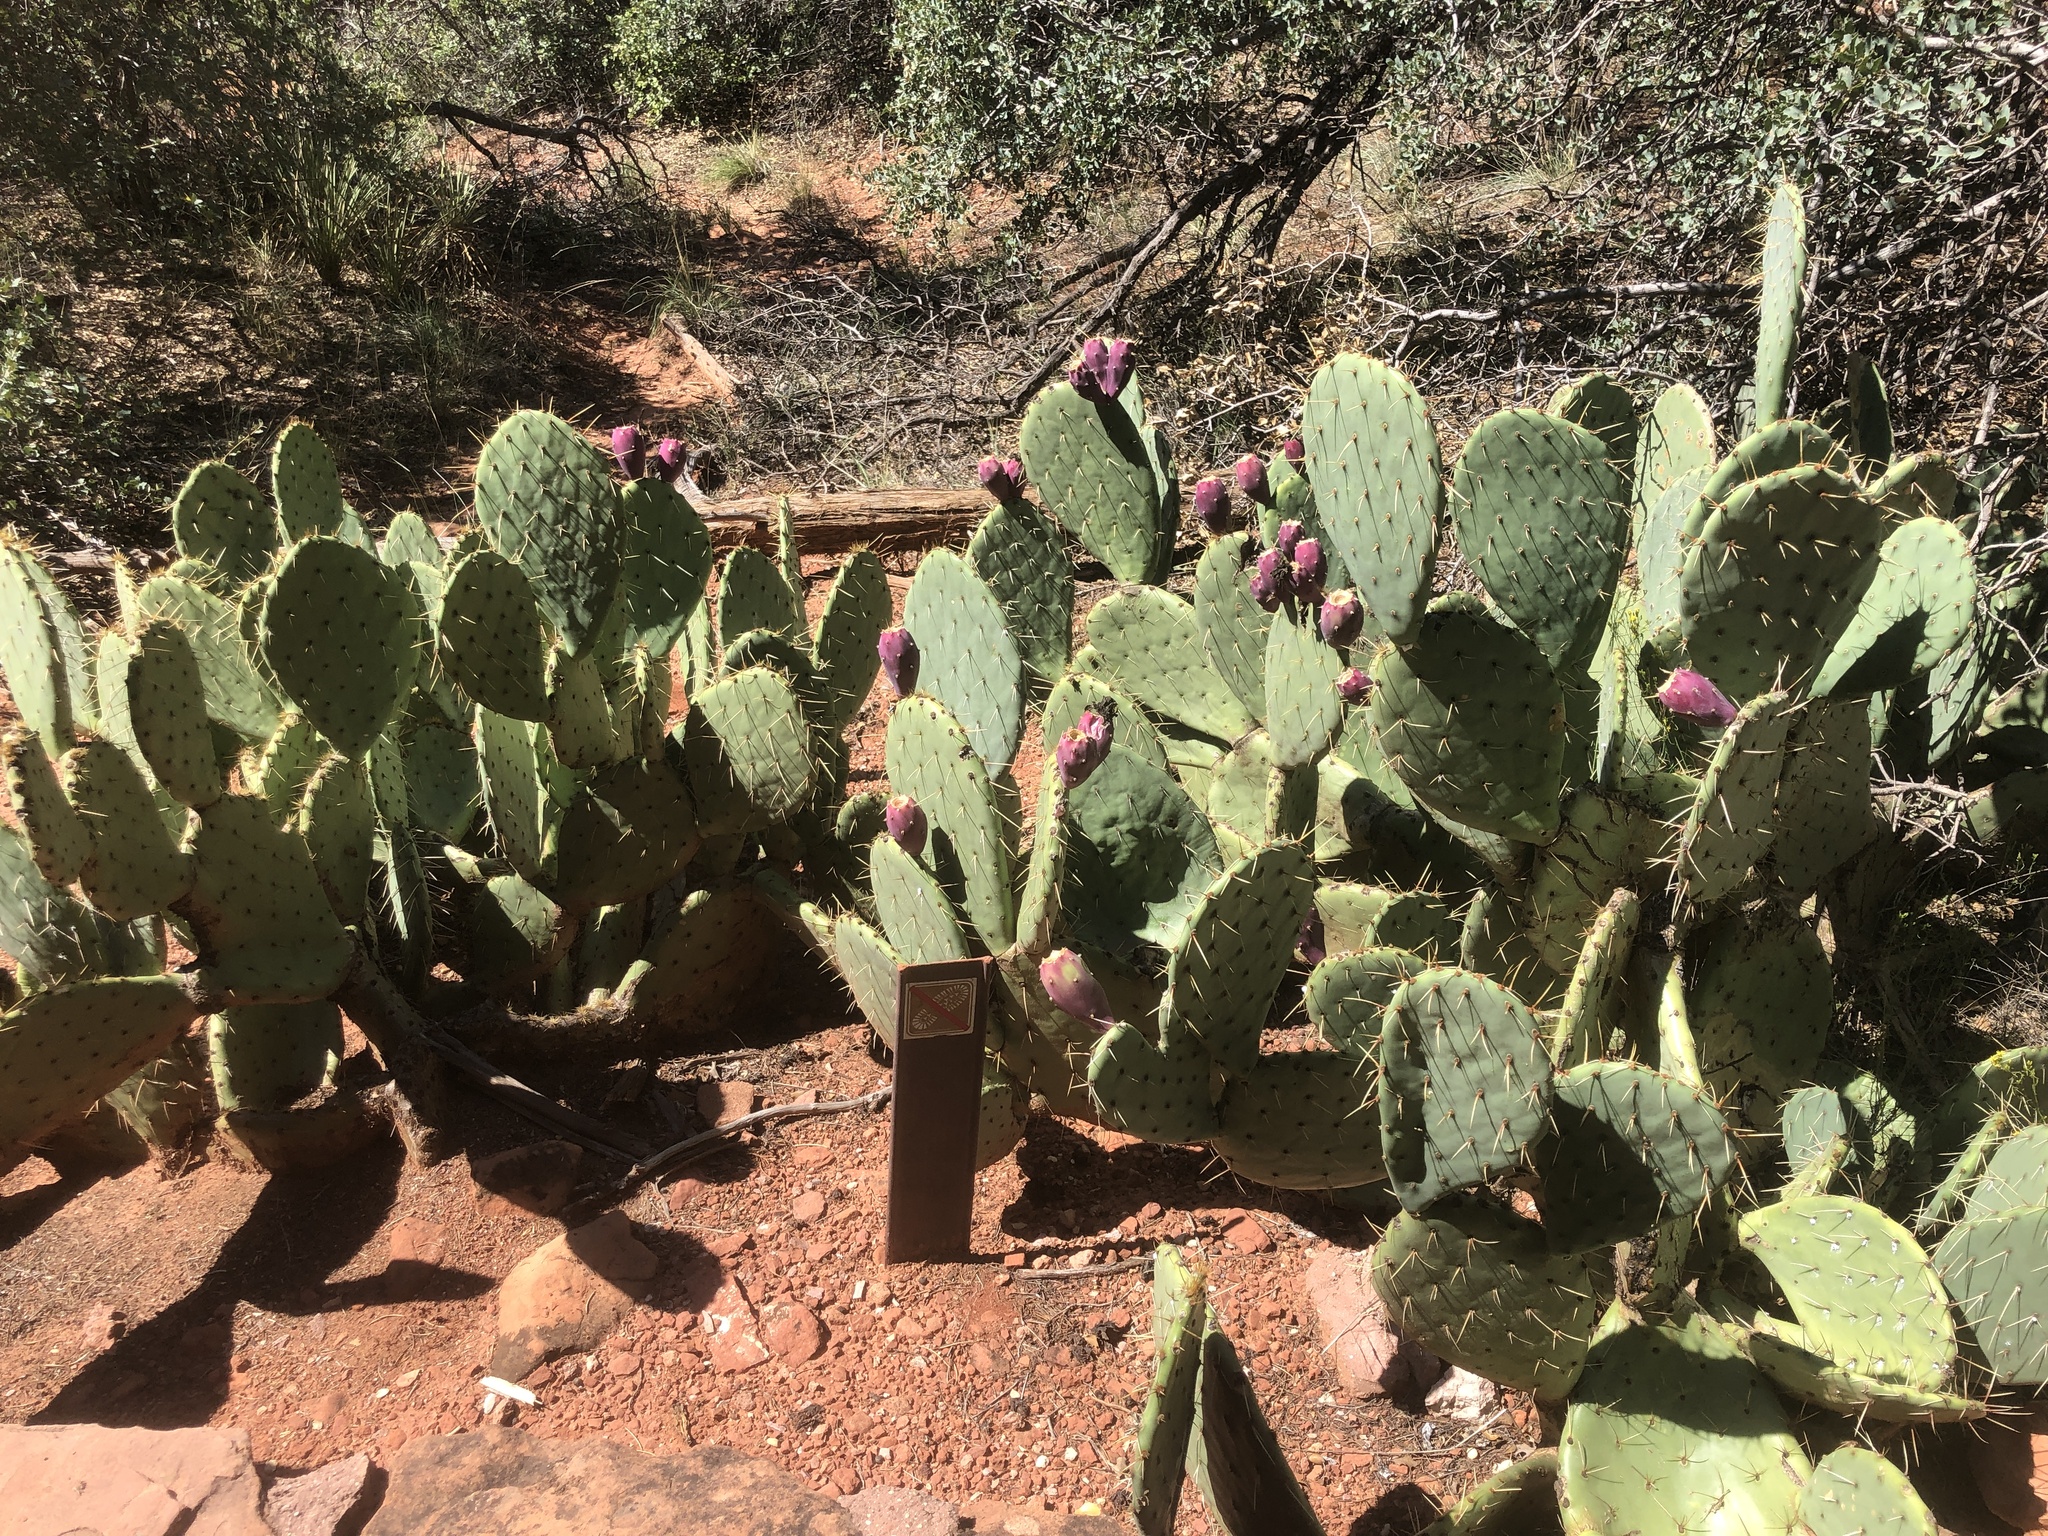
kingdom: Plantae
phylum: Tracheophyta
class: Magnoliopsida
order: Caryophyllales
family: Cactaceae
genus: Opuntia
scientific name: Opuntia engelmannii
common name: Cactus-apple
